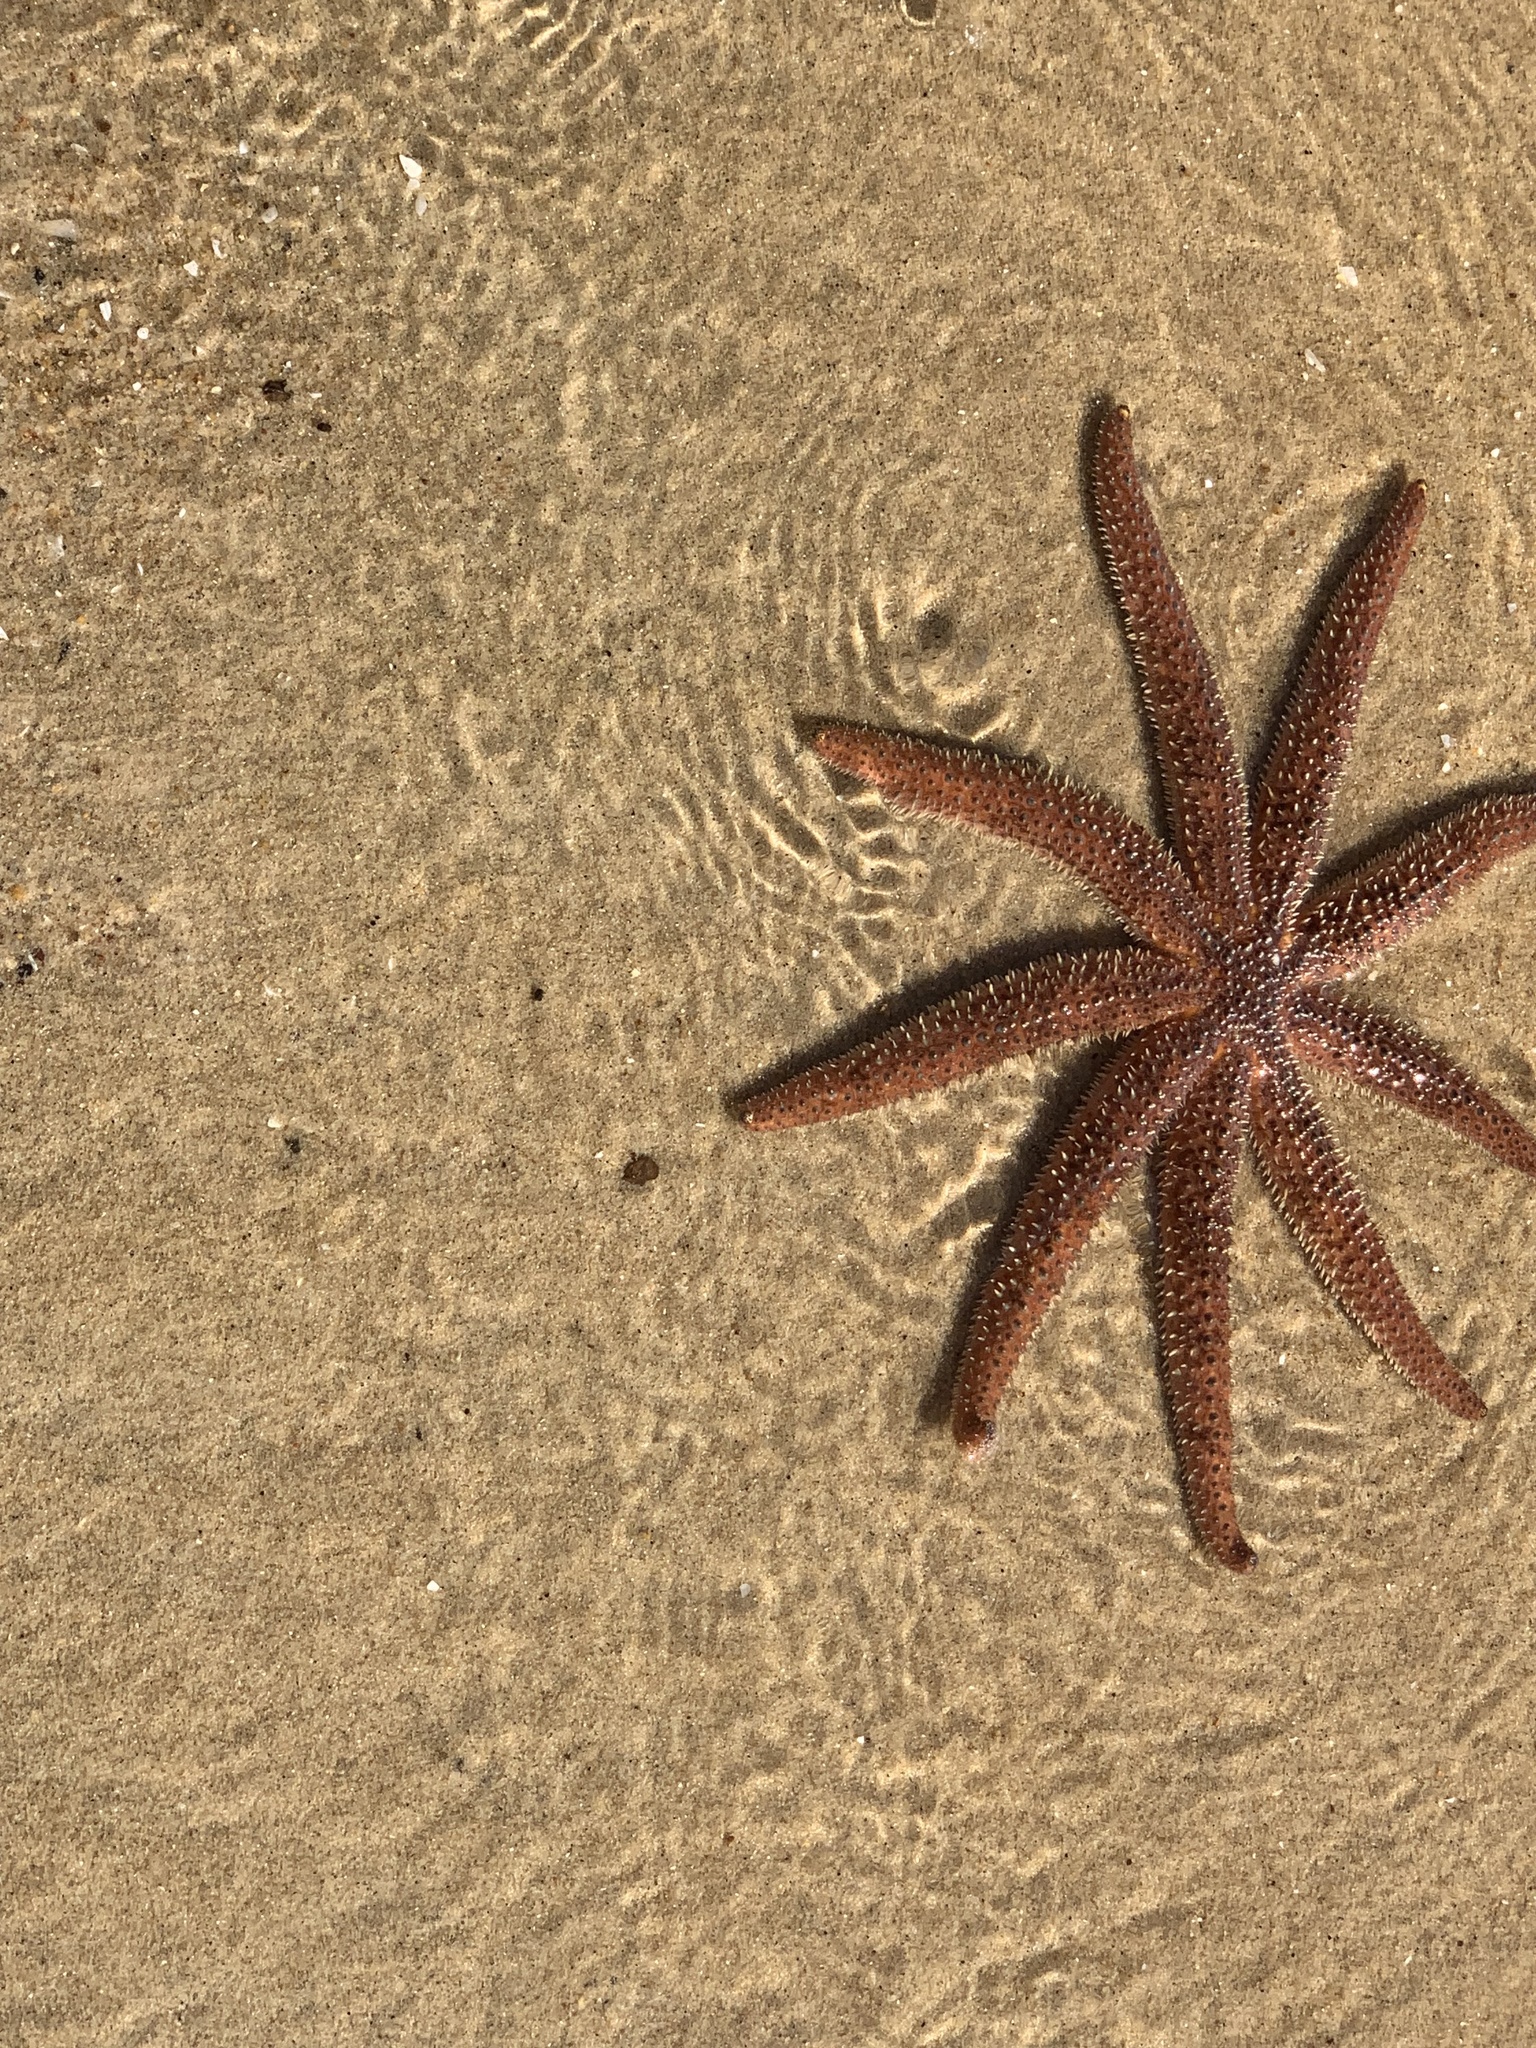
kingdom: Animalia
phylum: Echinodermata
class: Asteroidea
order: Forcipulatida
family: Asteriidae
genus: Coscinasterias
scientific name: Coscinasterias muricata
